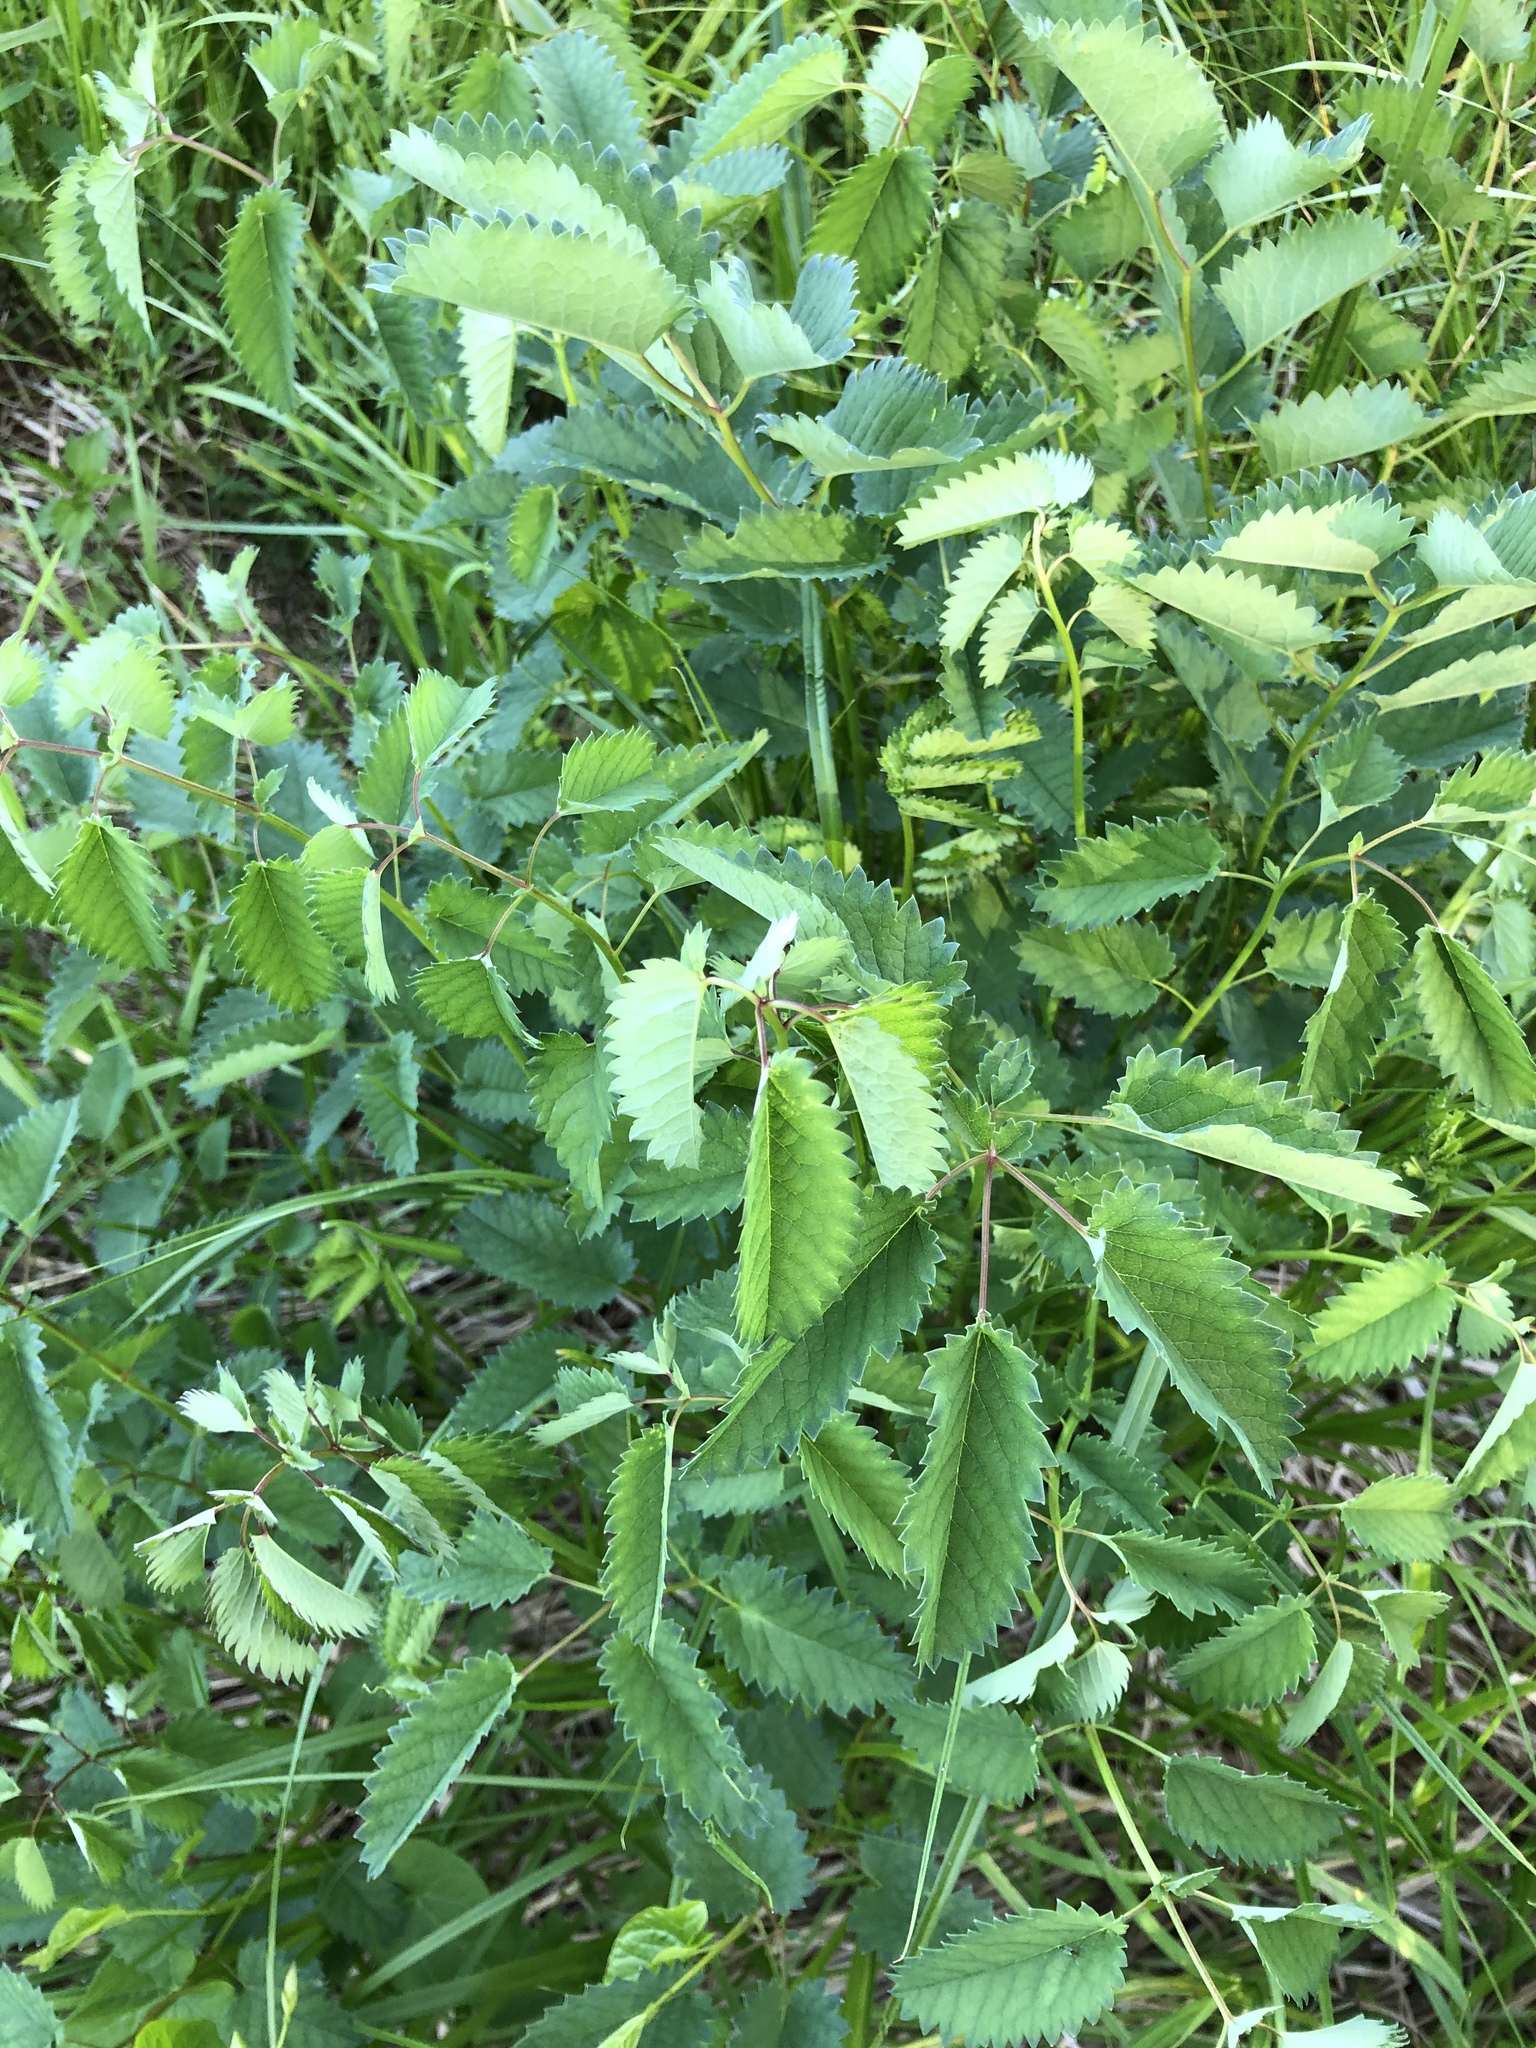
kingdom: Plantae
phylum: Tracheophyta
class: Magnoliopsida
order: Rosales
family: Rosaceae
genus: Sanguisorba
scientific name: Sanguisorba officinalis
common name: Great burnet
